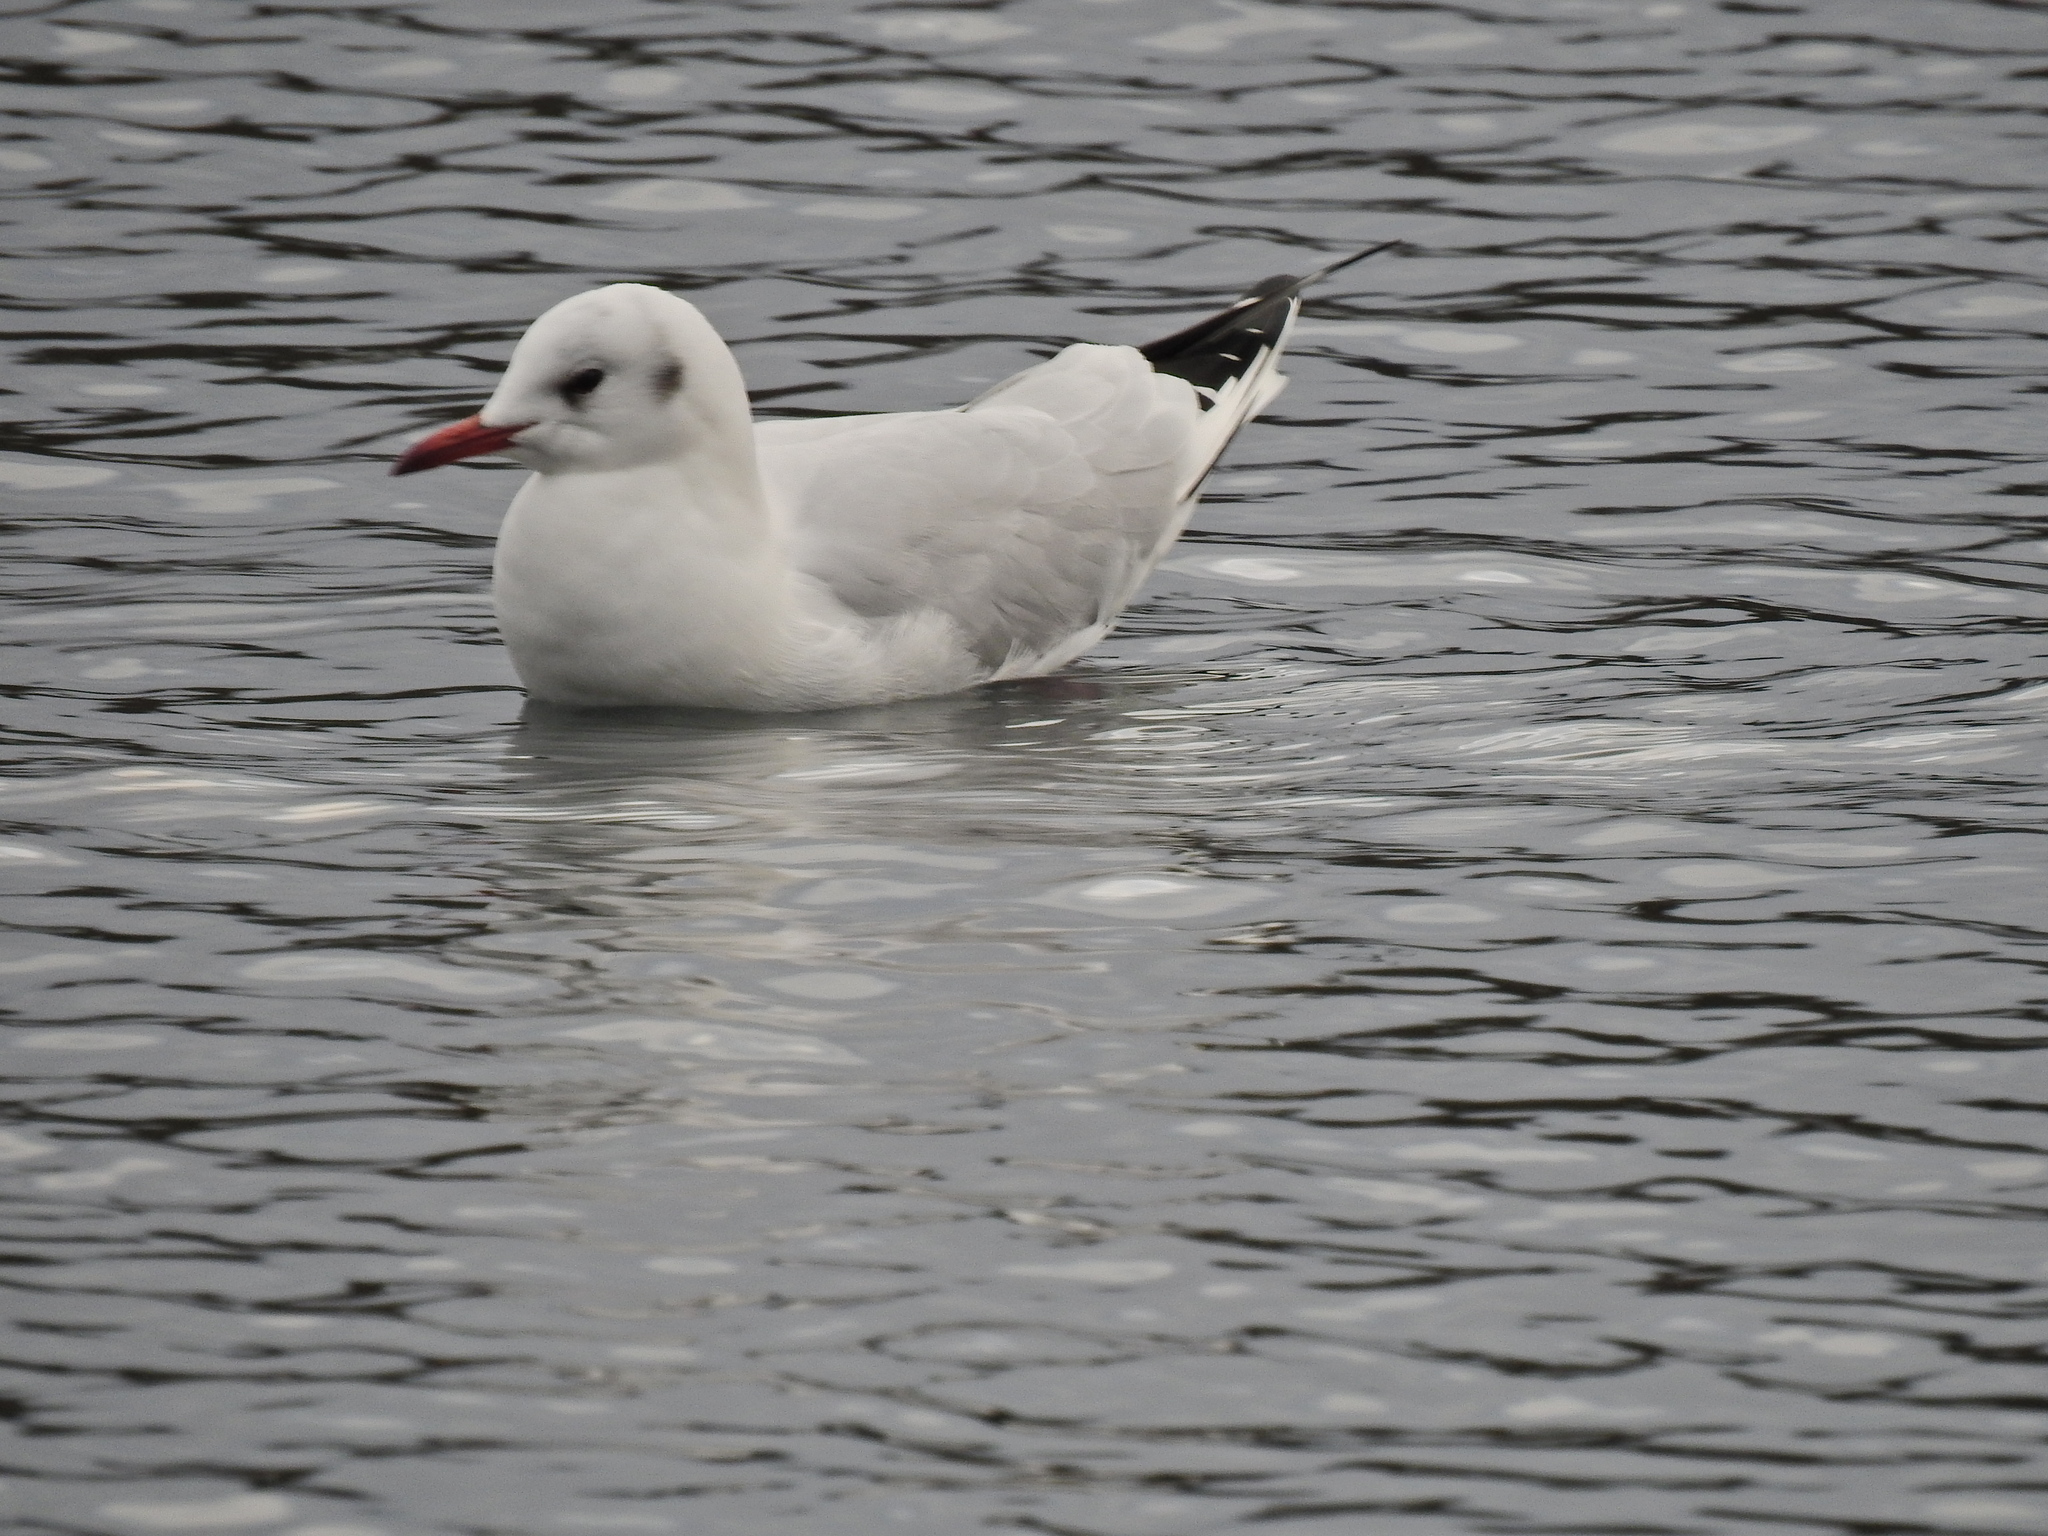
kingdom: Animalia
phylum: Chordata
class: Aves
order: Charadriiformes
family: Laridae
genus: Chroicocephalus
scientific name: Chroicocephalus ridibundus
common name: Black-headed gull
